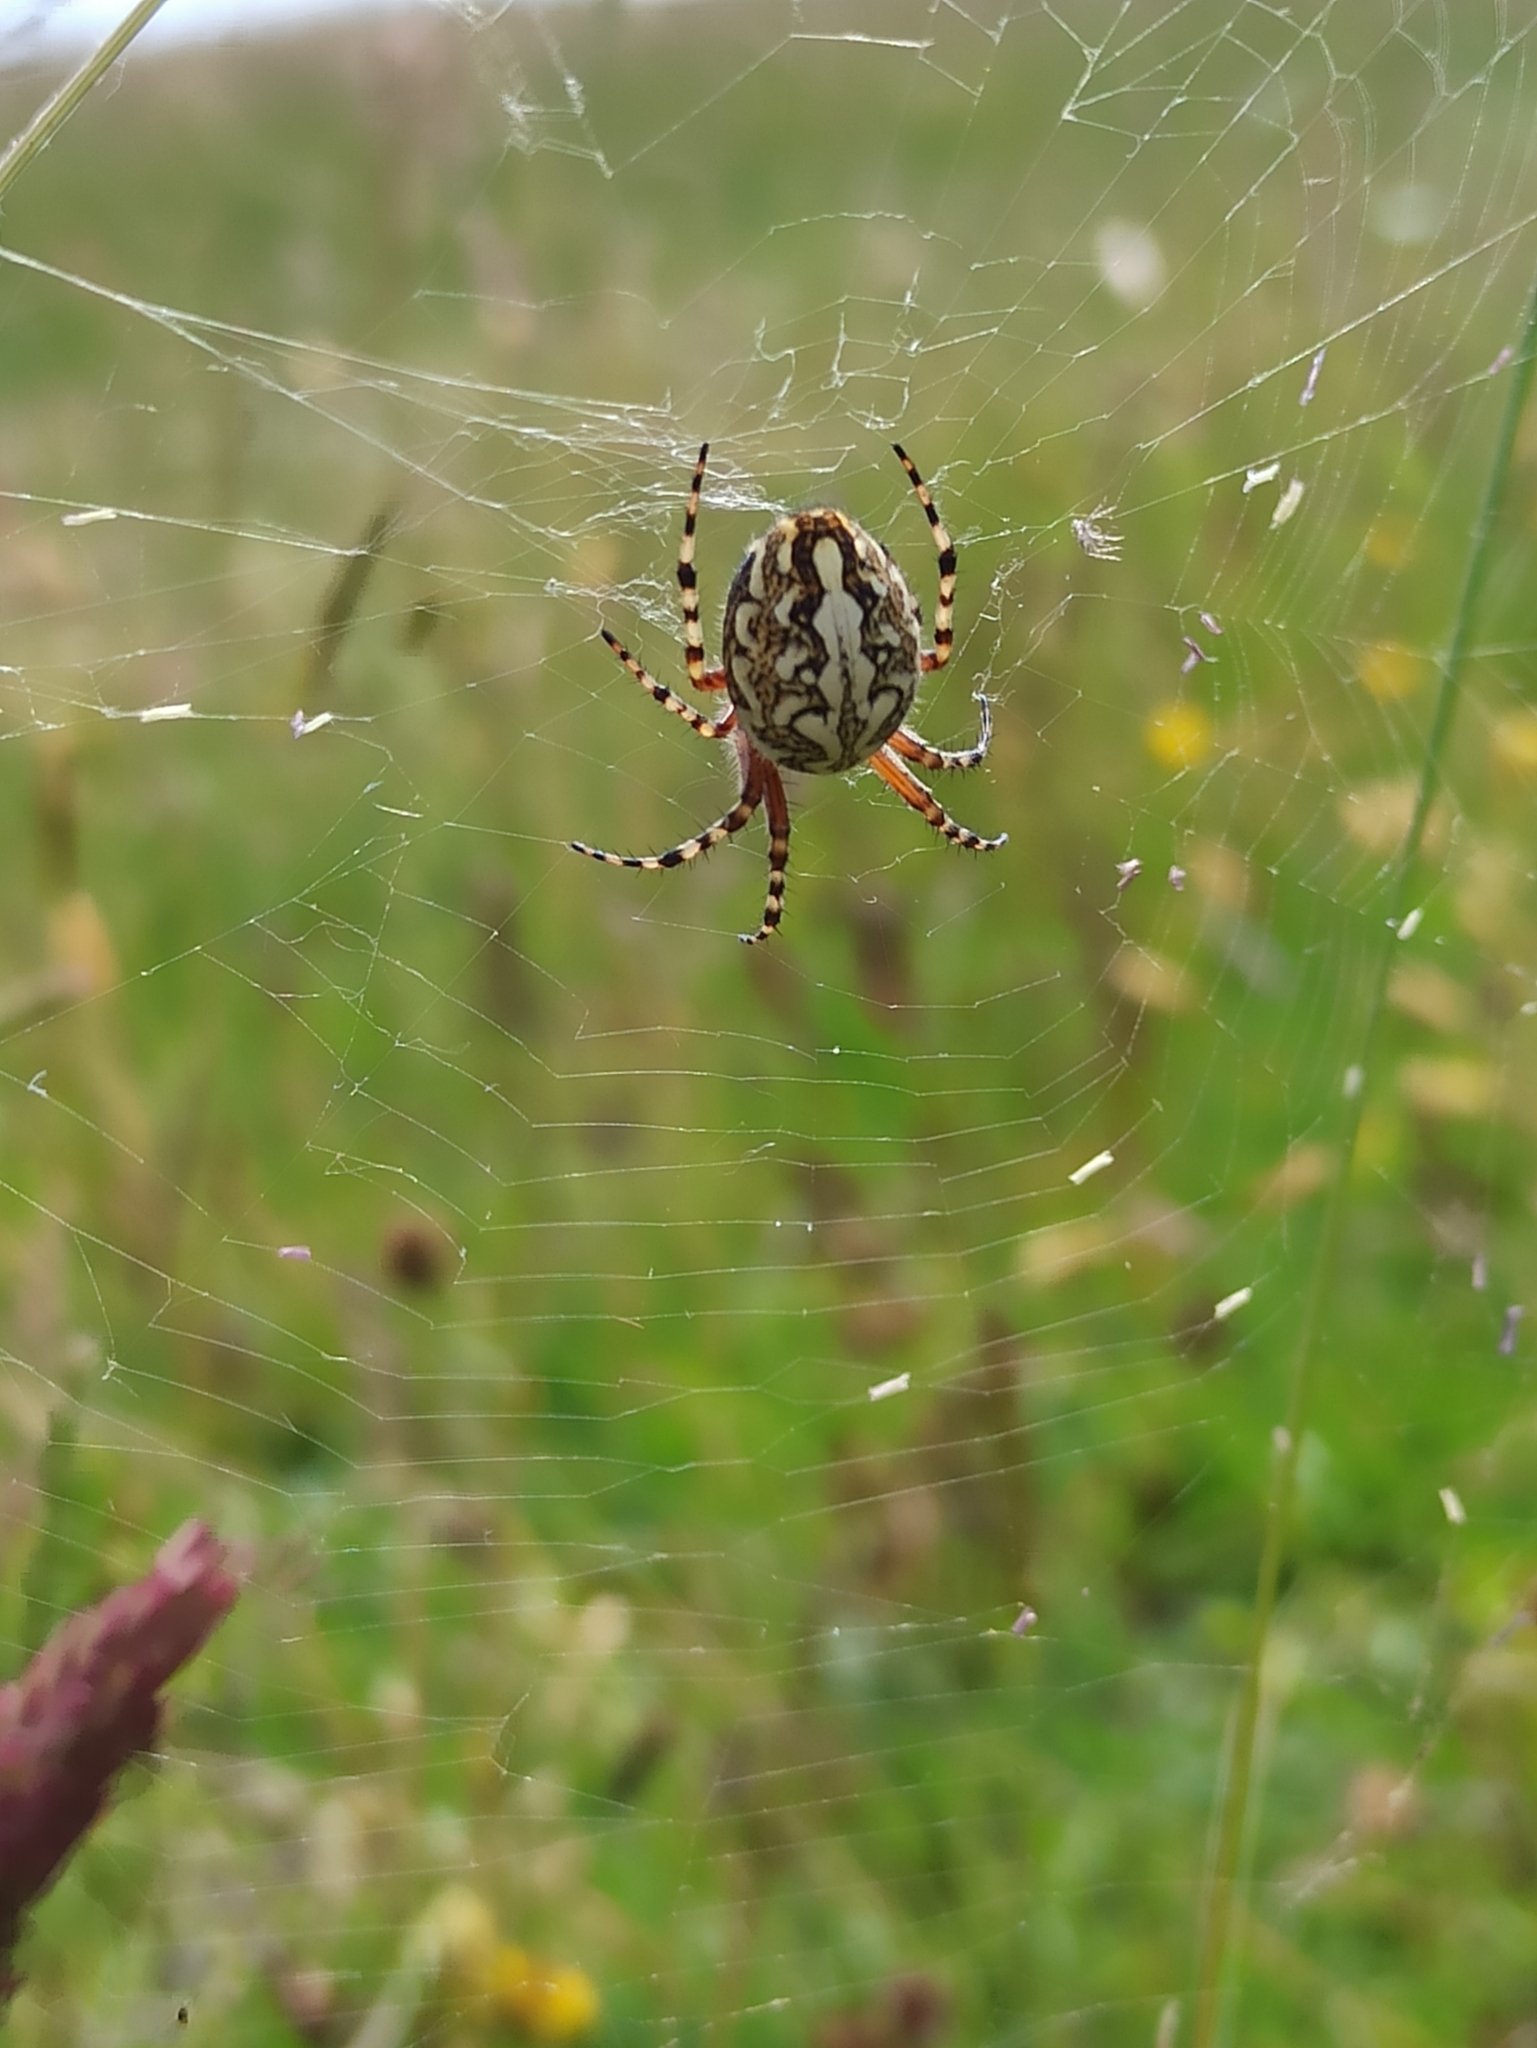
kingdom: Animalia
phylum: Arthropoda
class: Arachnida
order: Araneae
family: Araneidae
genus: Aculepeira
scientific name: Aculepeira ceropegia
